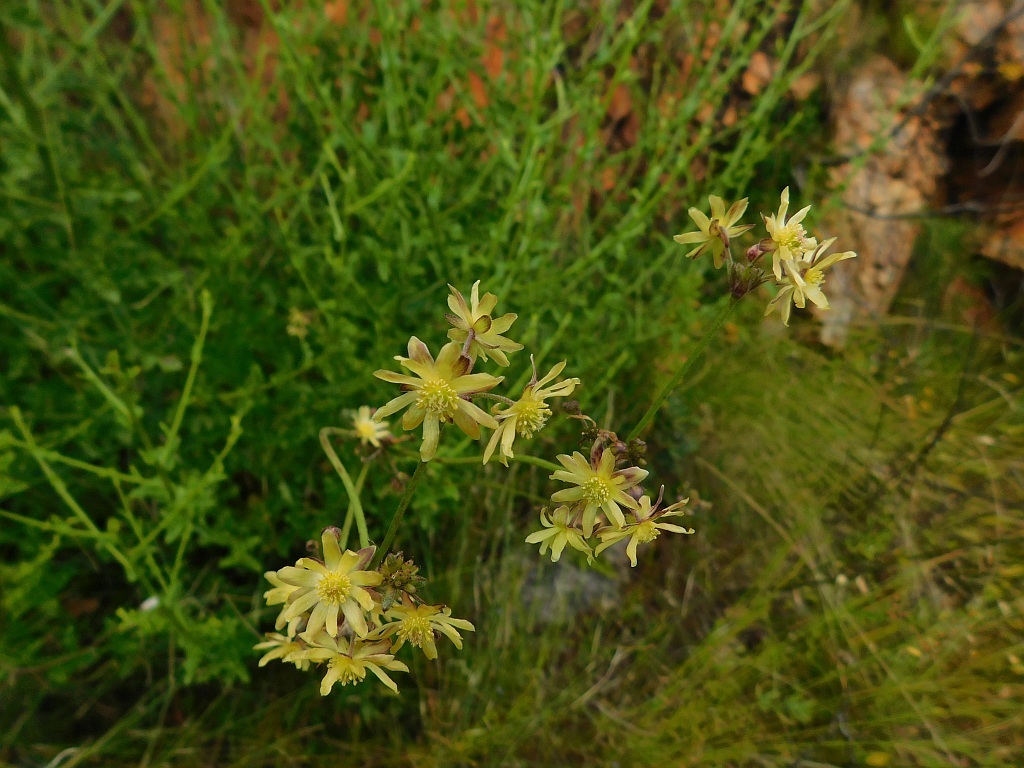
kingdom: Plantae
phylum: Tracheophyta
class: Magnoliopsida
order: Ranunculales
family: Ranunculaceae
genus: Knowltonia
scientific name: Knowltonia anemonoides
